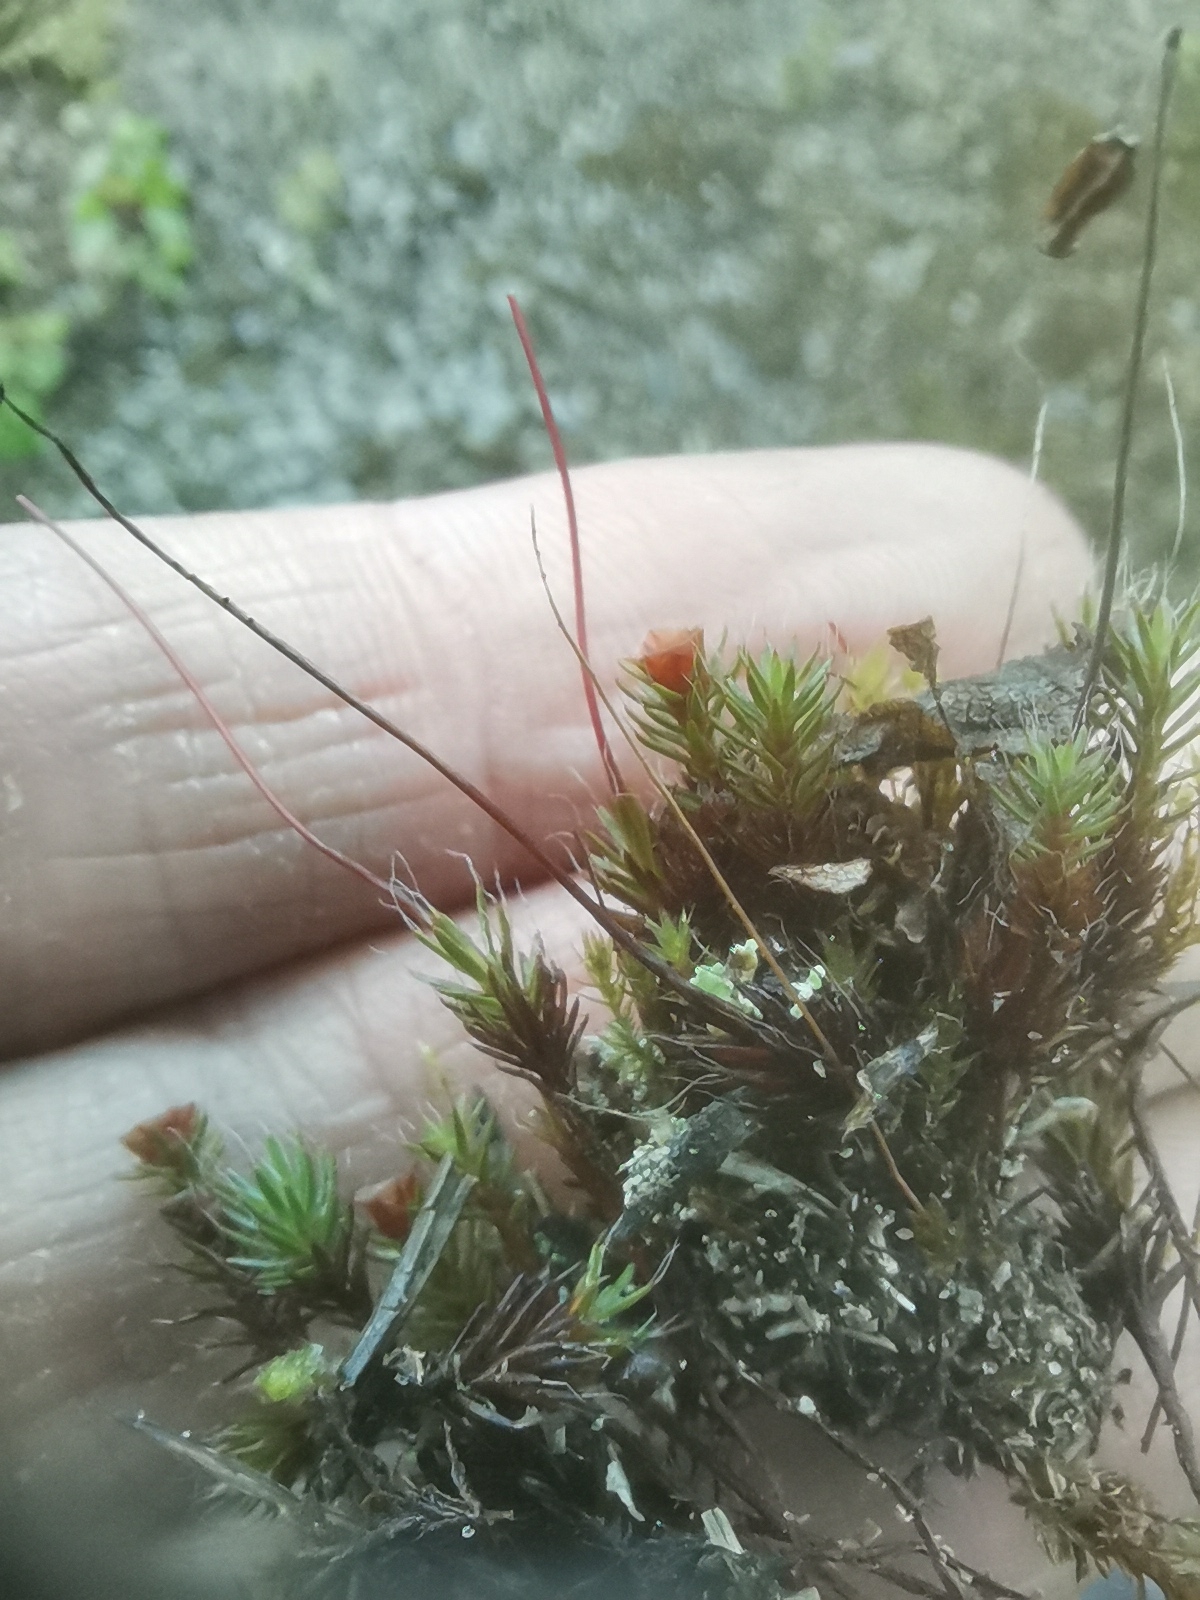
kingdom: Plantae
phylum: Bryophyta
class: Polytrichopsida
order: Polytrichales
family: Polytrichaceae
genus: Polytrichum
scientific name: Polytrichum piliferum
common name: Bristly haircap
